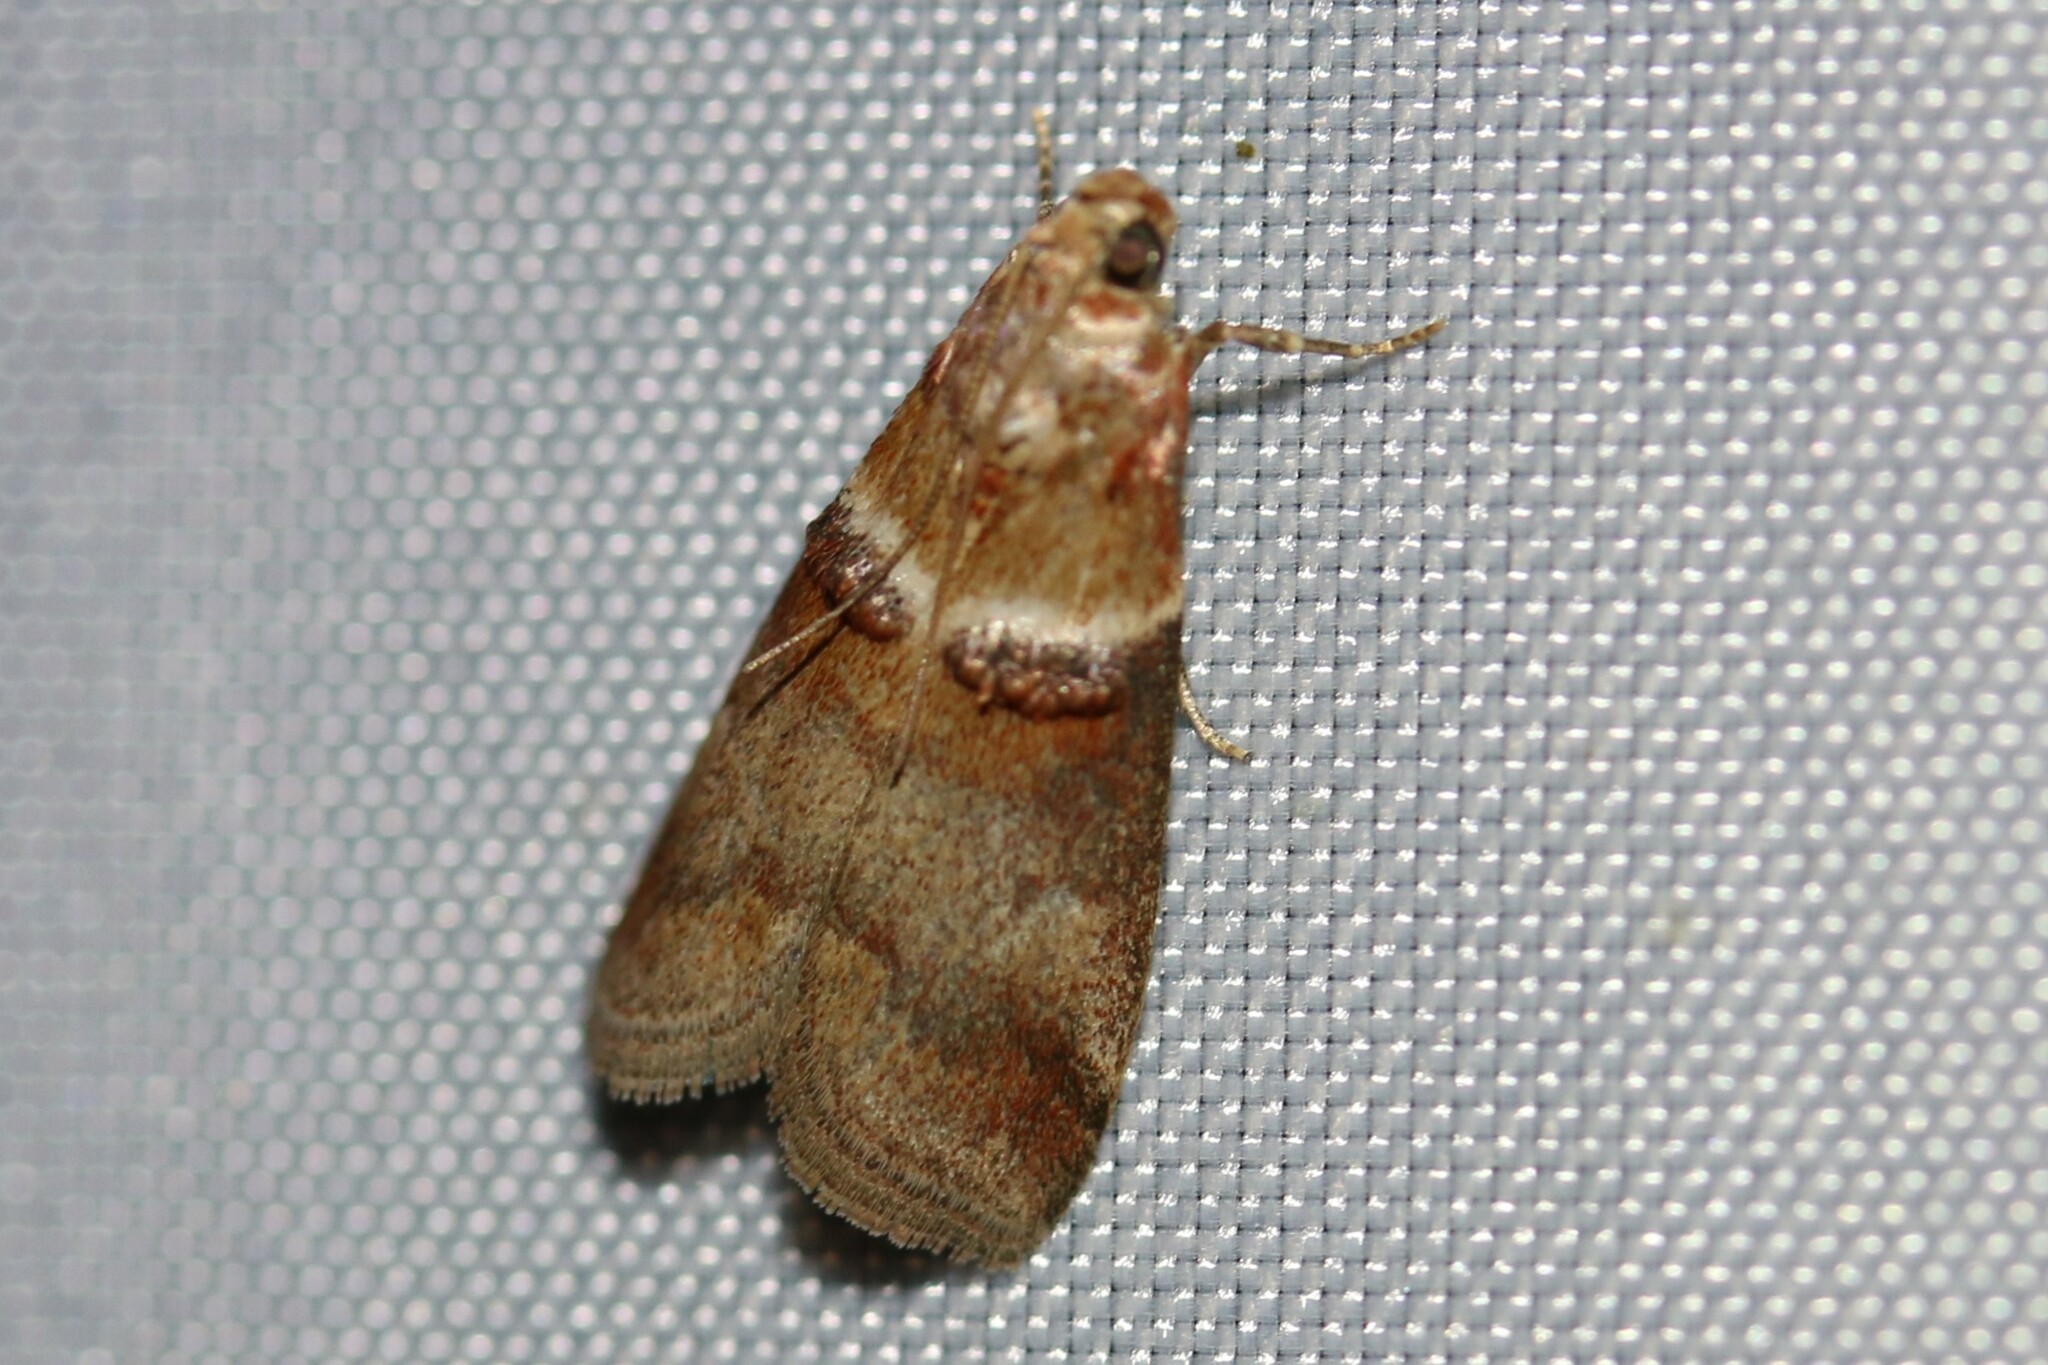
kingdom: Animalia
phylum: Arthropoda
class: Insecta
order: Lepidoptera
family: Pyralidae
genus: Acrobasis
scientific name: Acrobasis tumidana
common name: Scarce oak knot-horn
